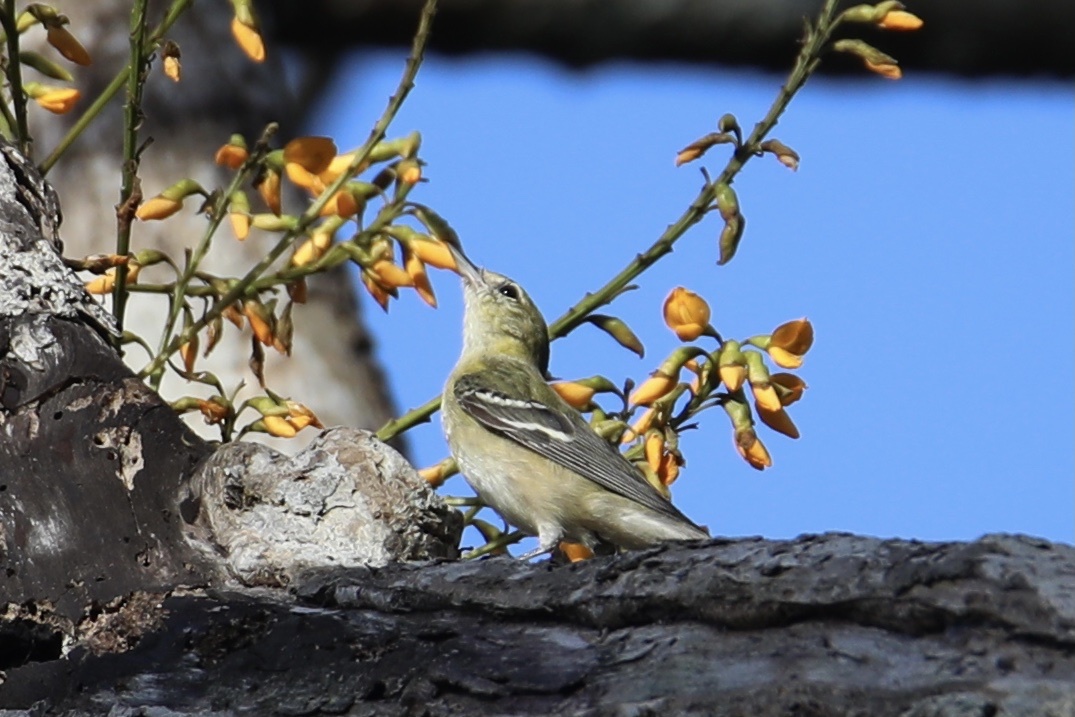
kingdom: Animalia
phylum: Chordata
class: Aves
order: Passeriformes
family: Parulidae
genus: Setophaga
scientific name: Setophaga castanea
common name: Bay-breasted warbler
